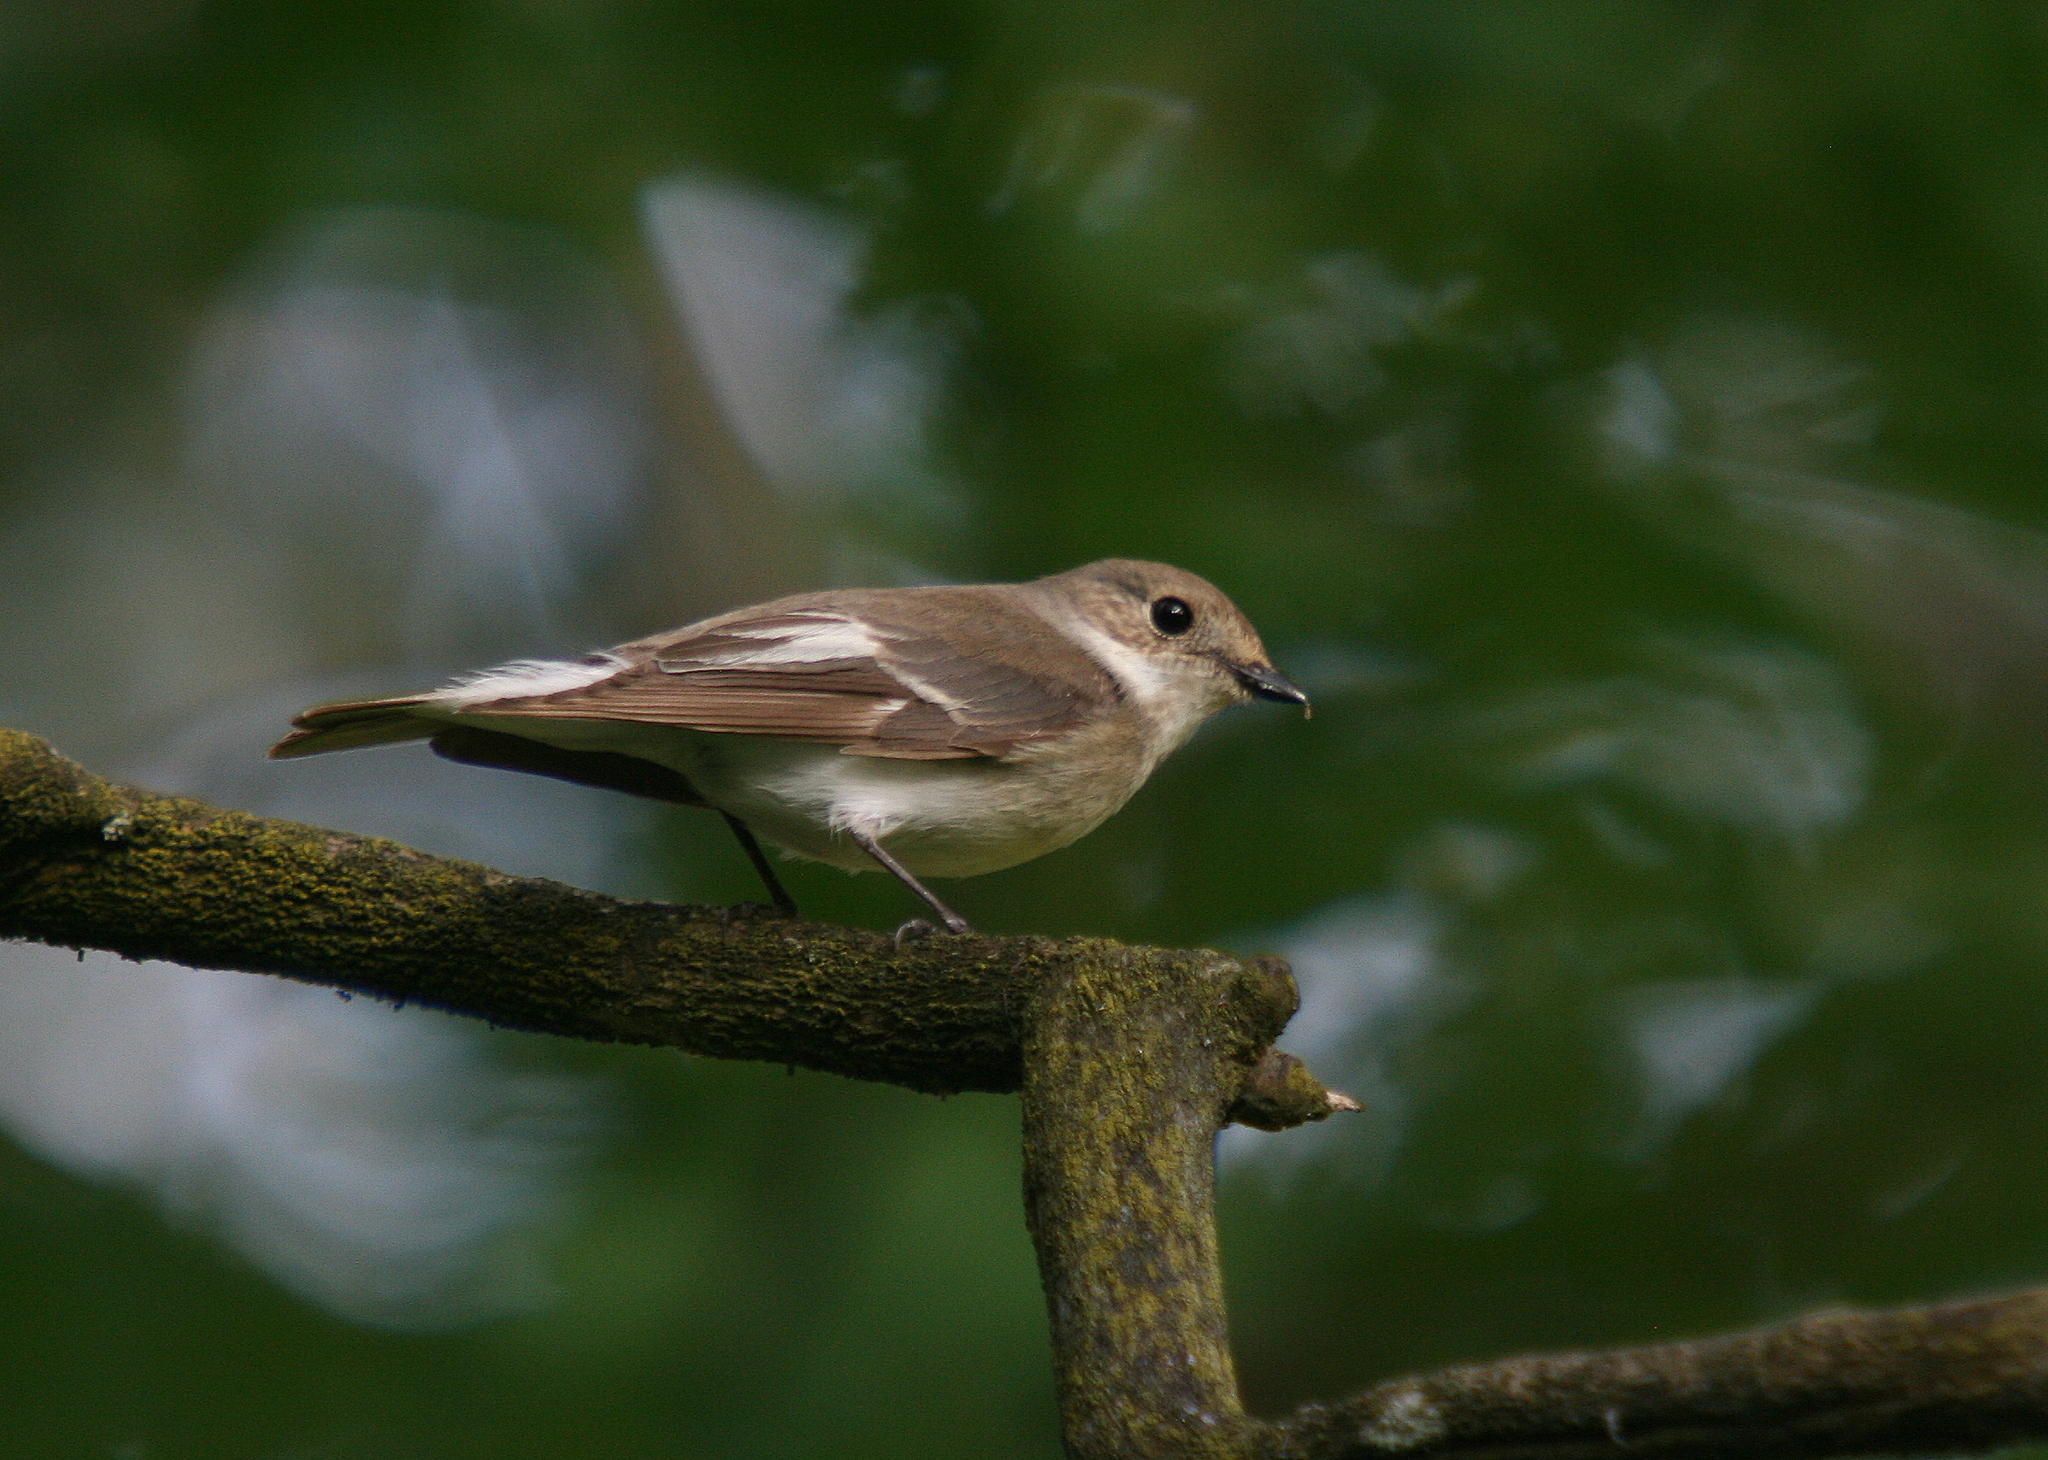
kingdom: Animalia
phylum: Chordata
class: Aves
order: Passeriformes
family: Muscicapidae
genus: Ficedula
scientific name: Ficedula hypoleuca
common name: European pied flycatcher
